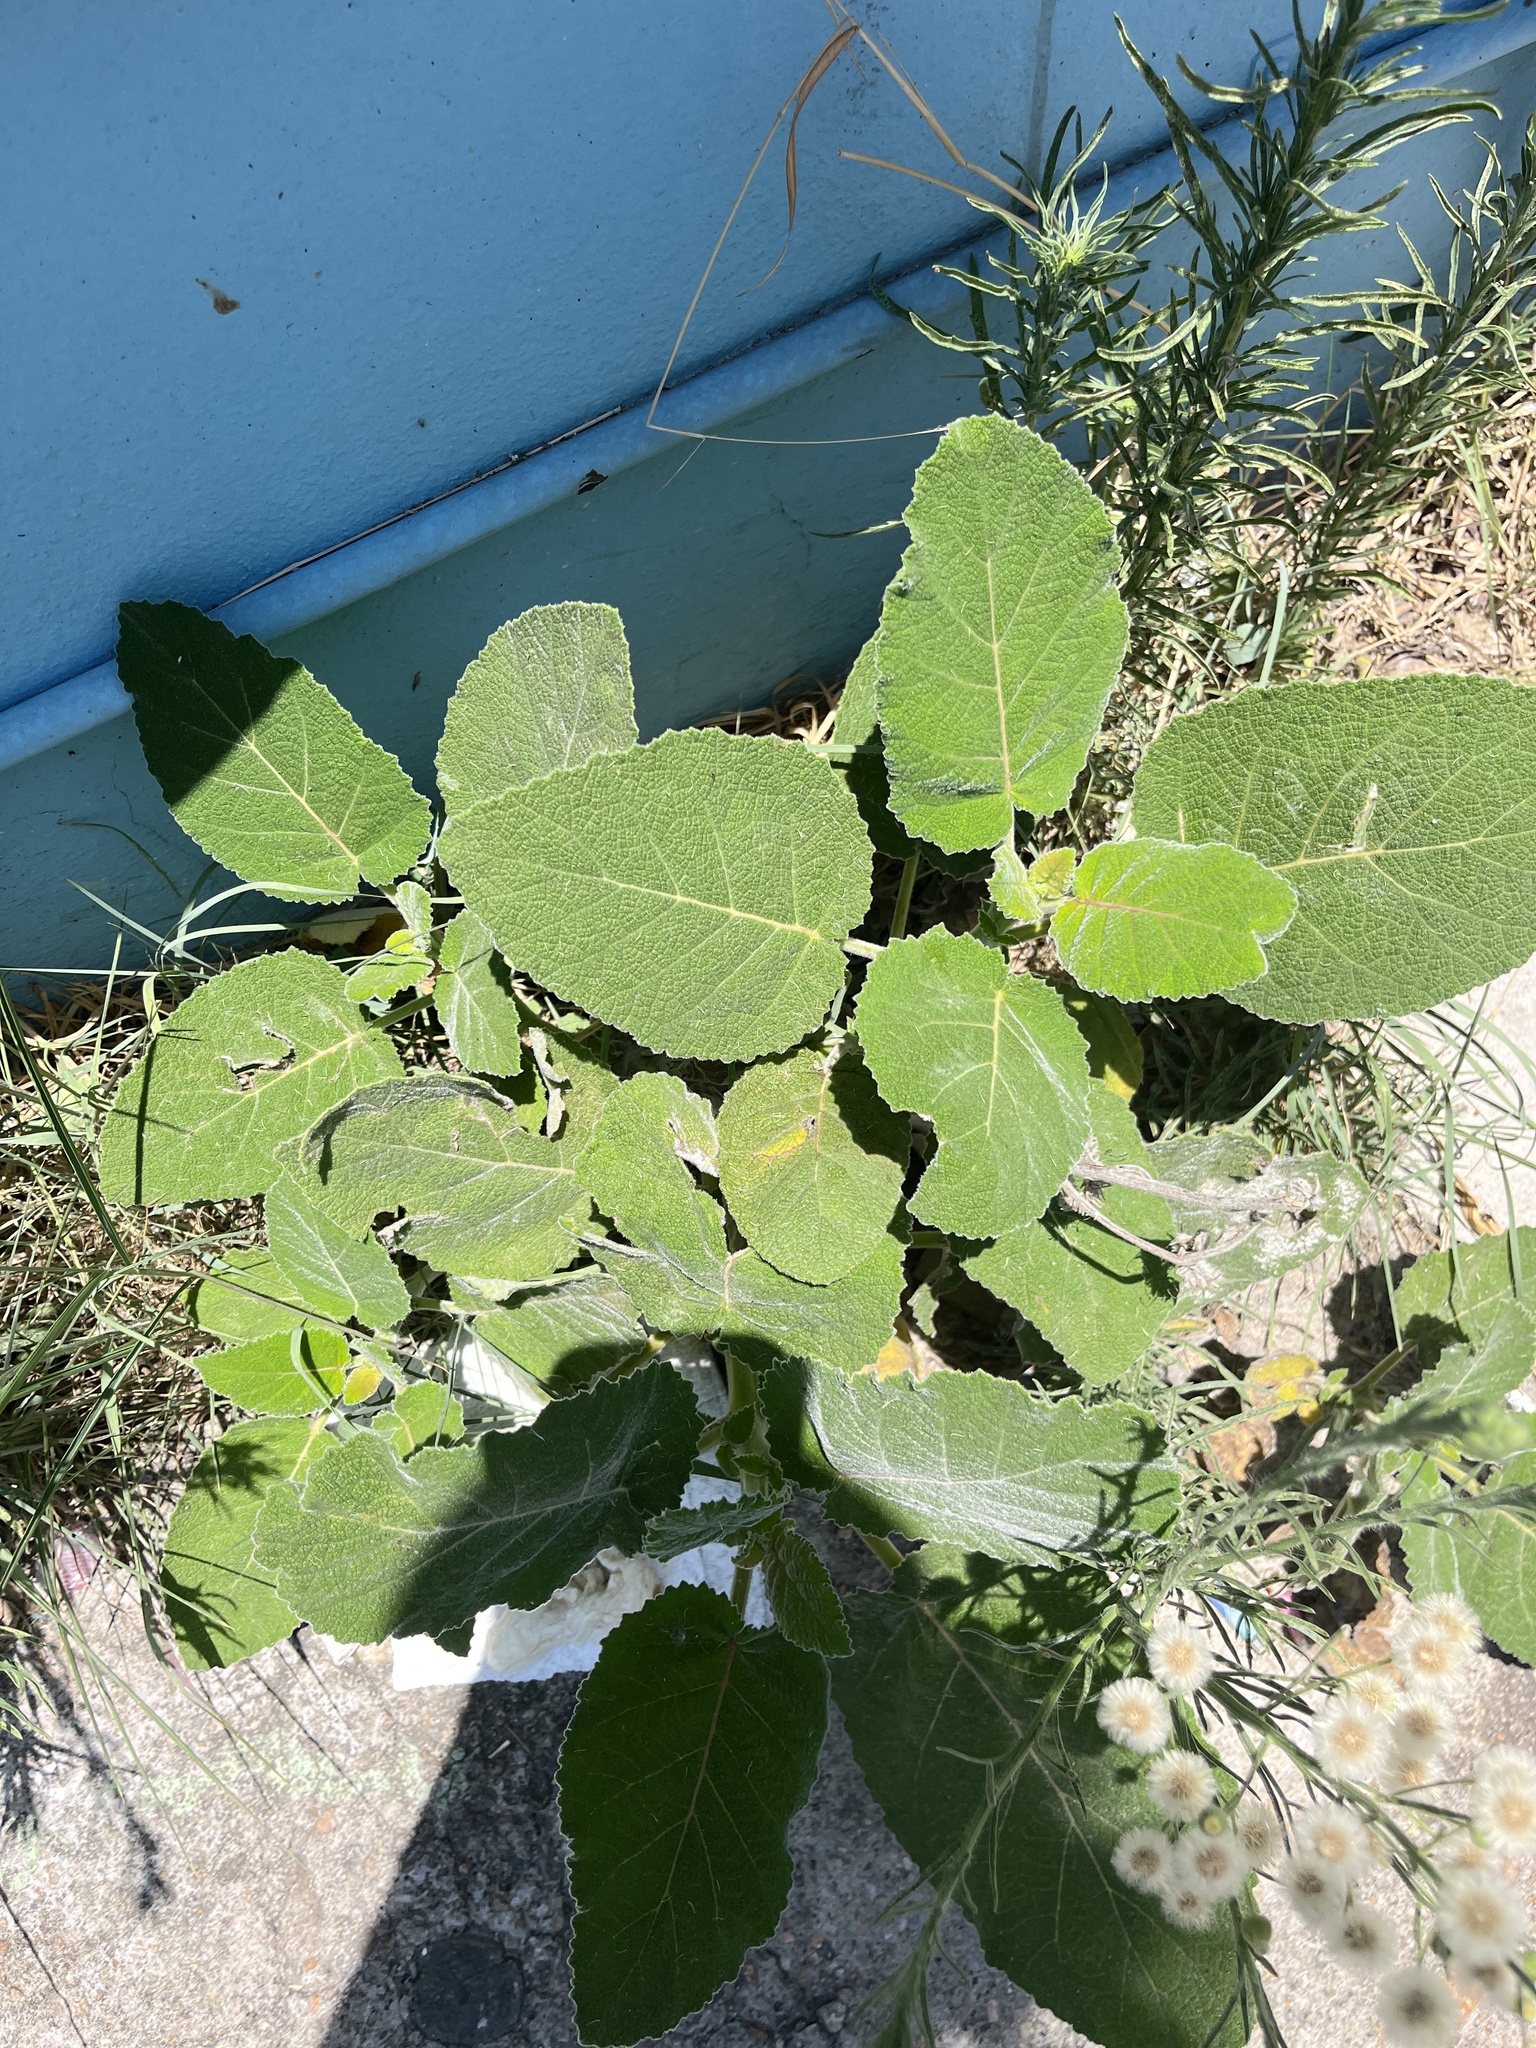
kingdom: Plantae
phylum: Tracheophyta
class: Magnoliopsida
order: Boraginales
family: Namaceae
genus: Wigandia
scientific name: Wigandia urens
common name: Caracus wigandia
